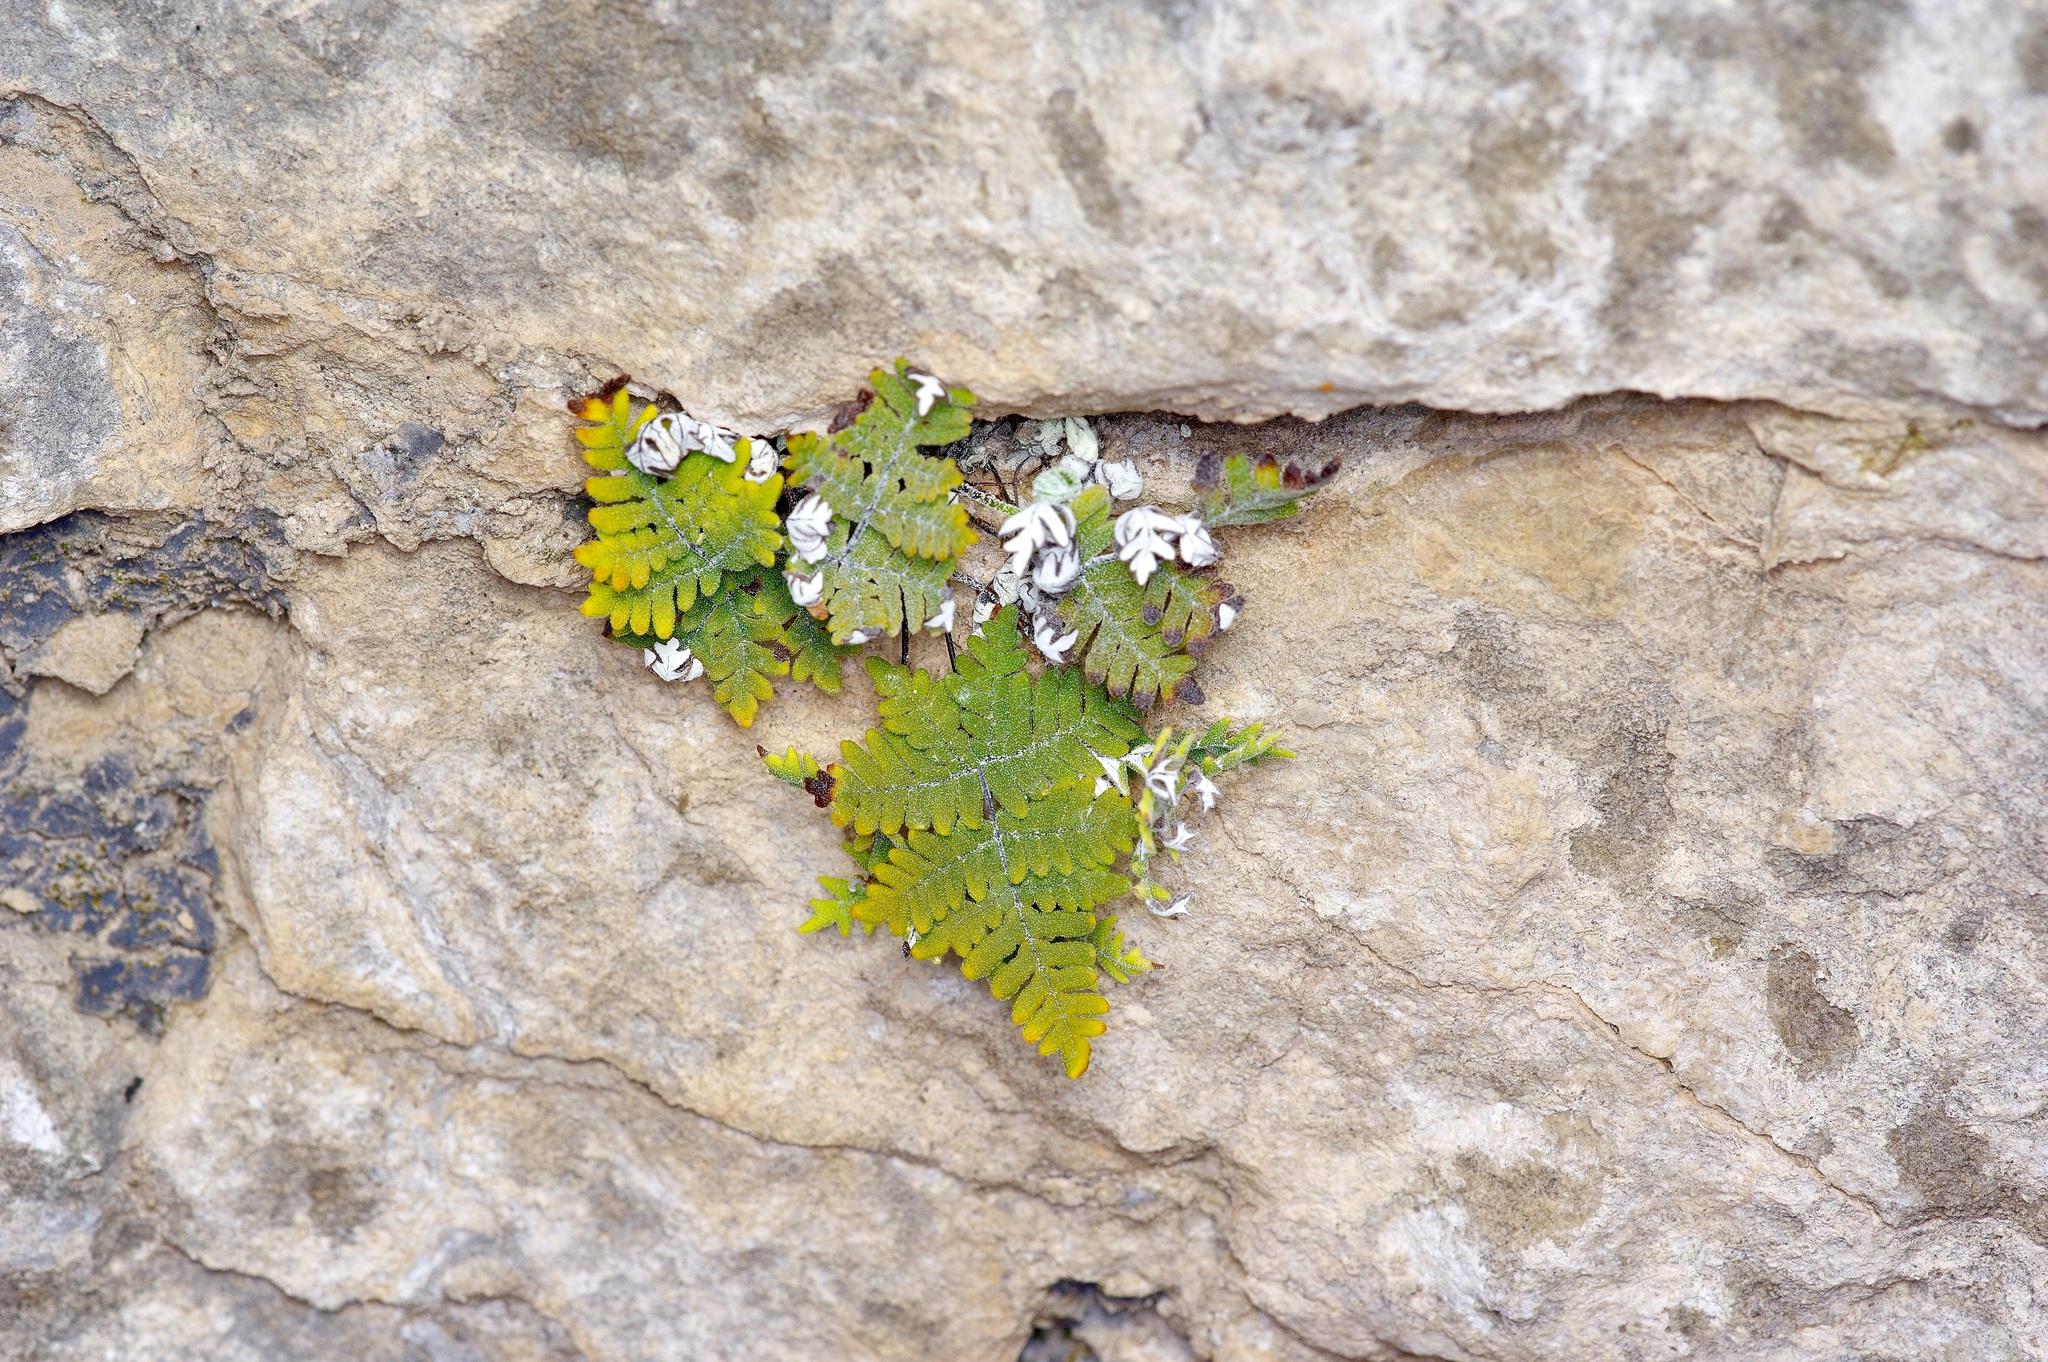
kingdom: Plantae
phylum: Tracheophyta
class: Polypodiopsida
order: Polypodiales
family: Pteridaceae
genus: Notholaena
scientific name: Notholaena candida
